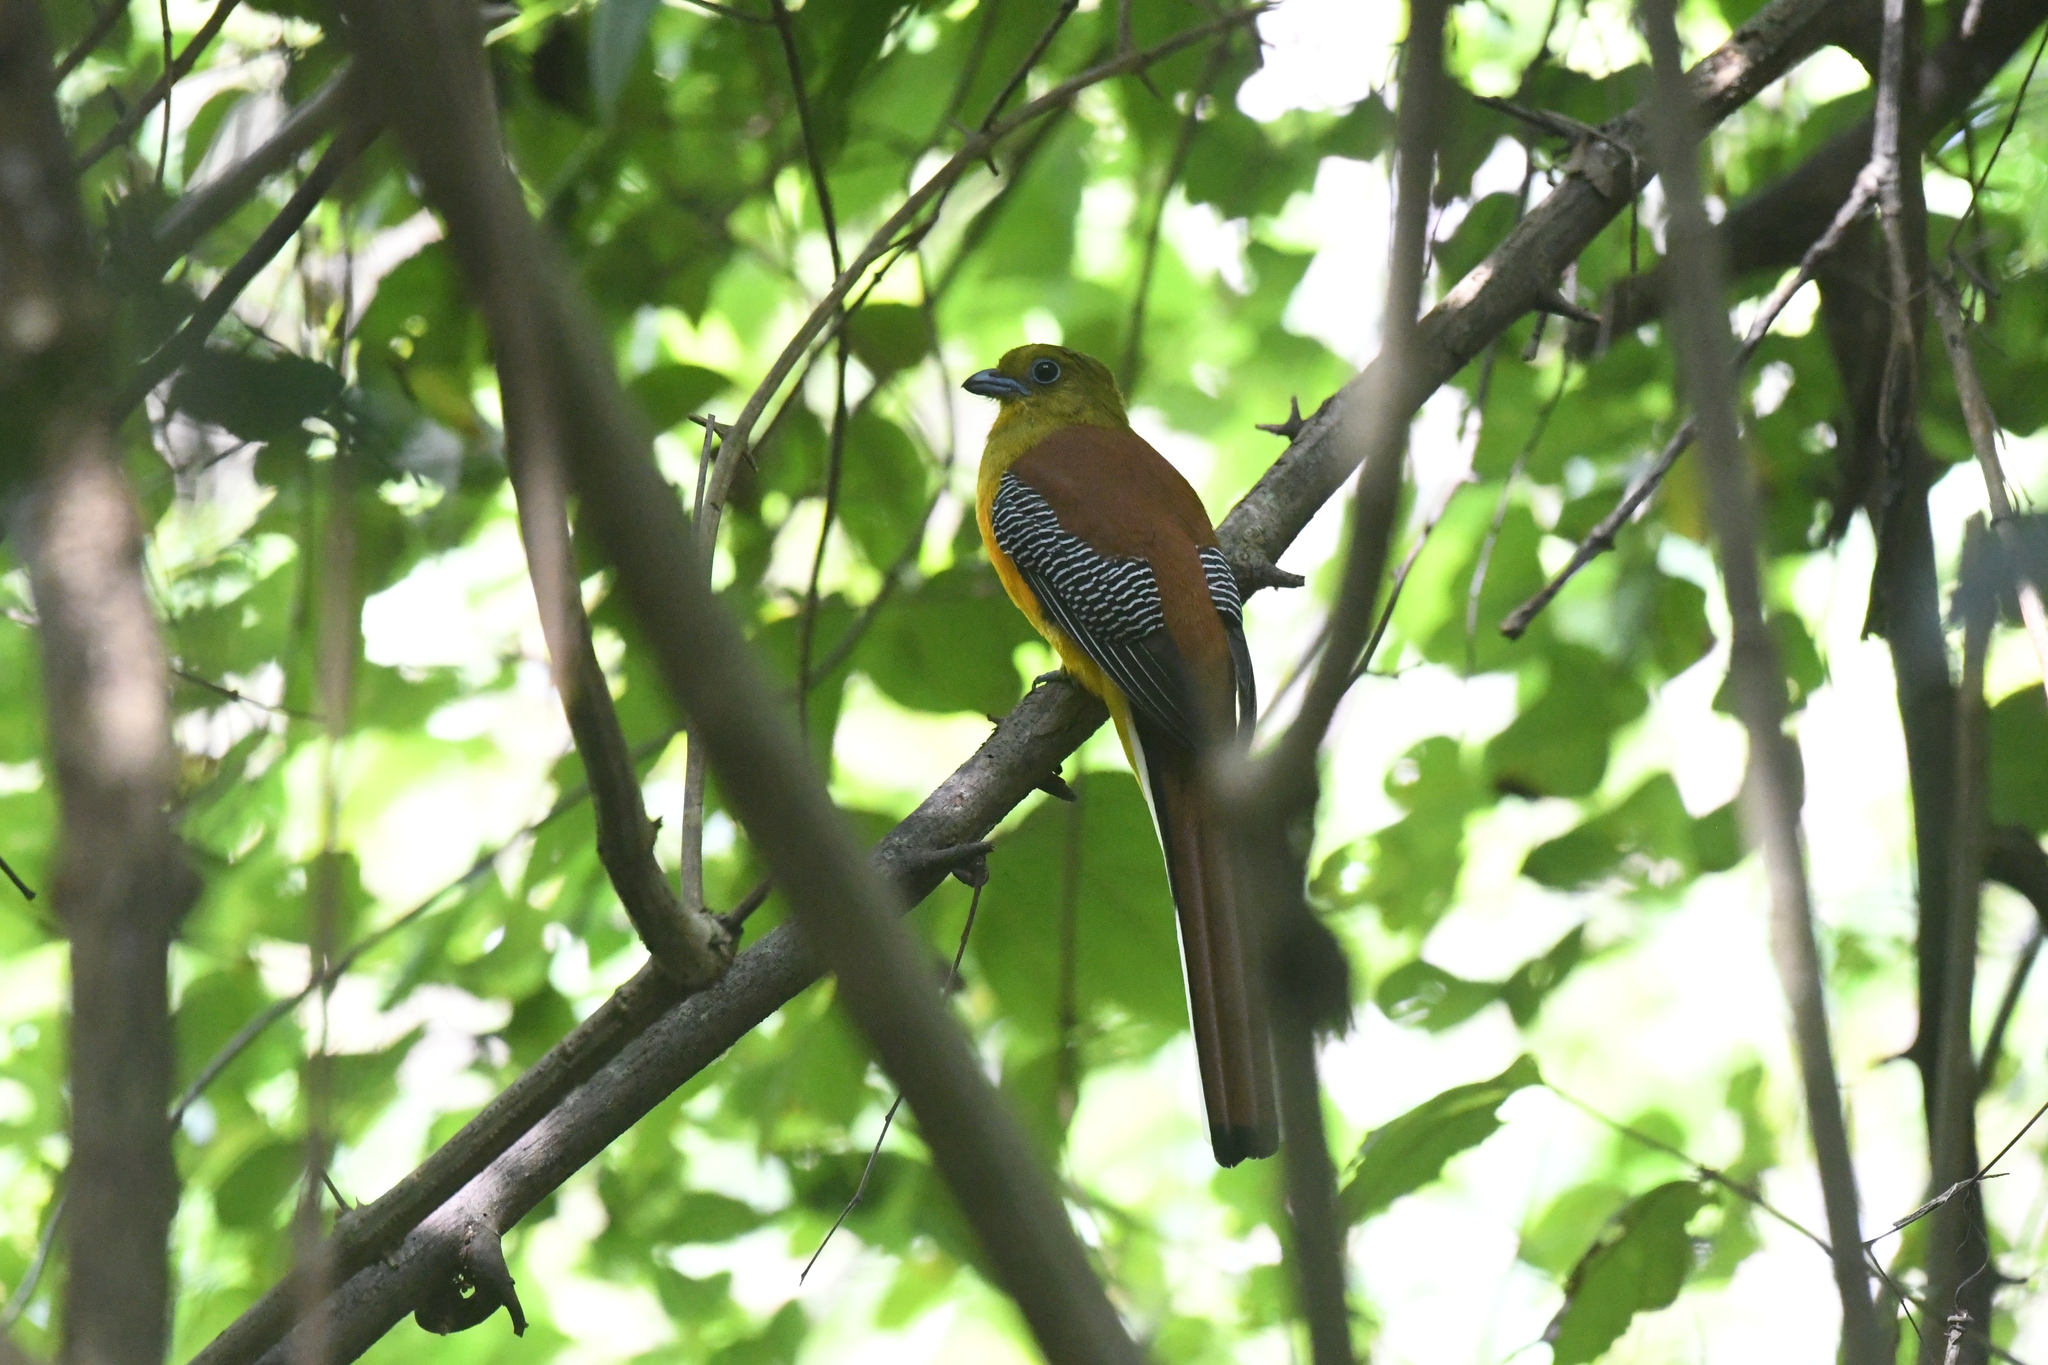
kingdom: Animalia
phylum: Chordata
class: Aves
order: Trogoniformes
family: Trogonidae
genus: Harpactes
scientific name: Harpactes oreskios
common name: Orange-breasted trogon
